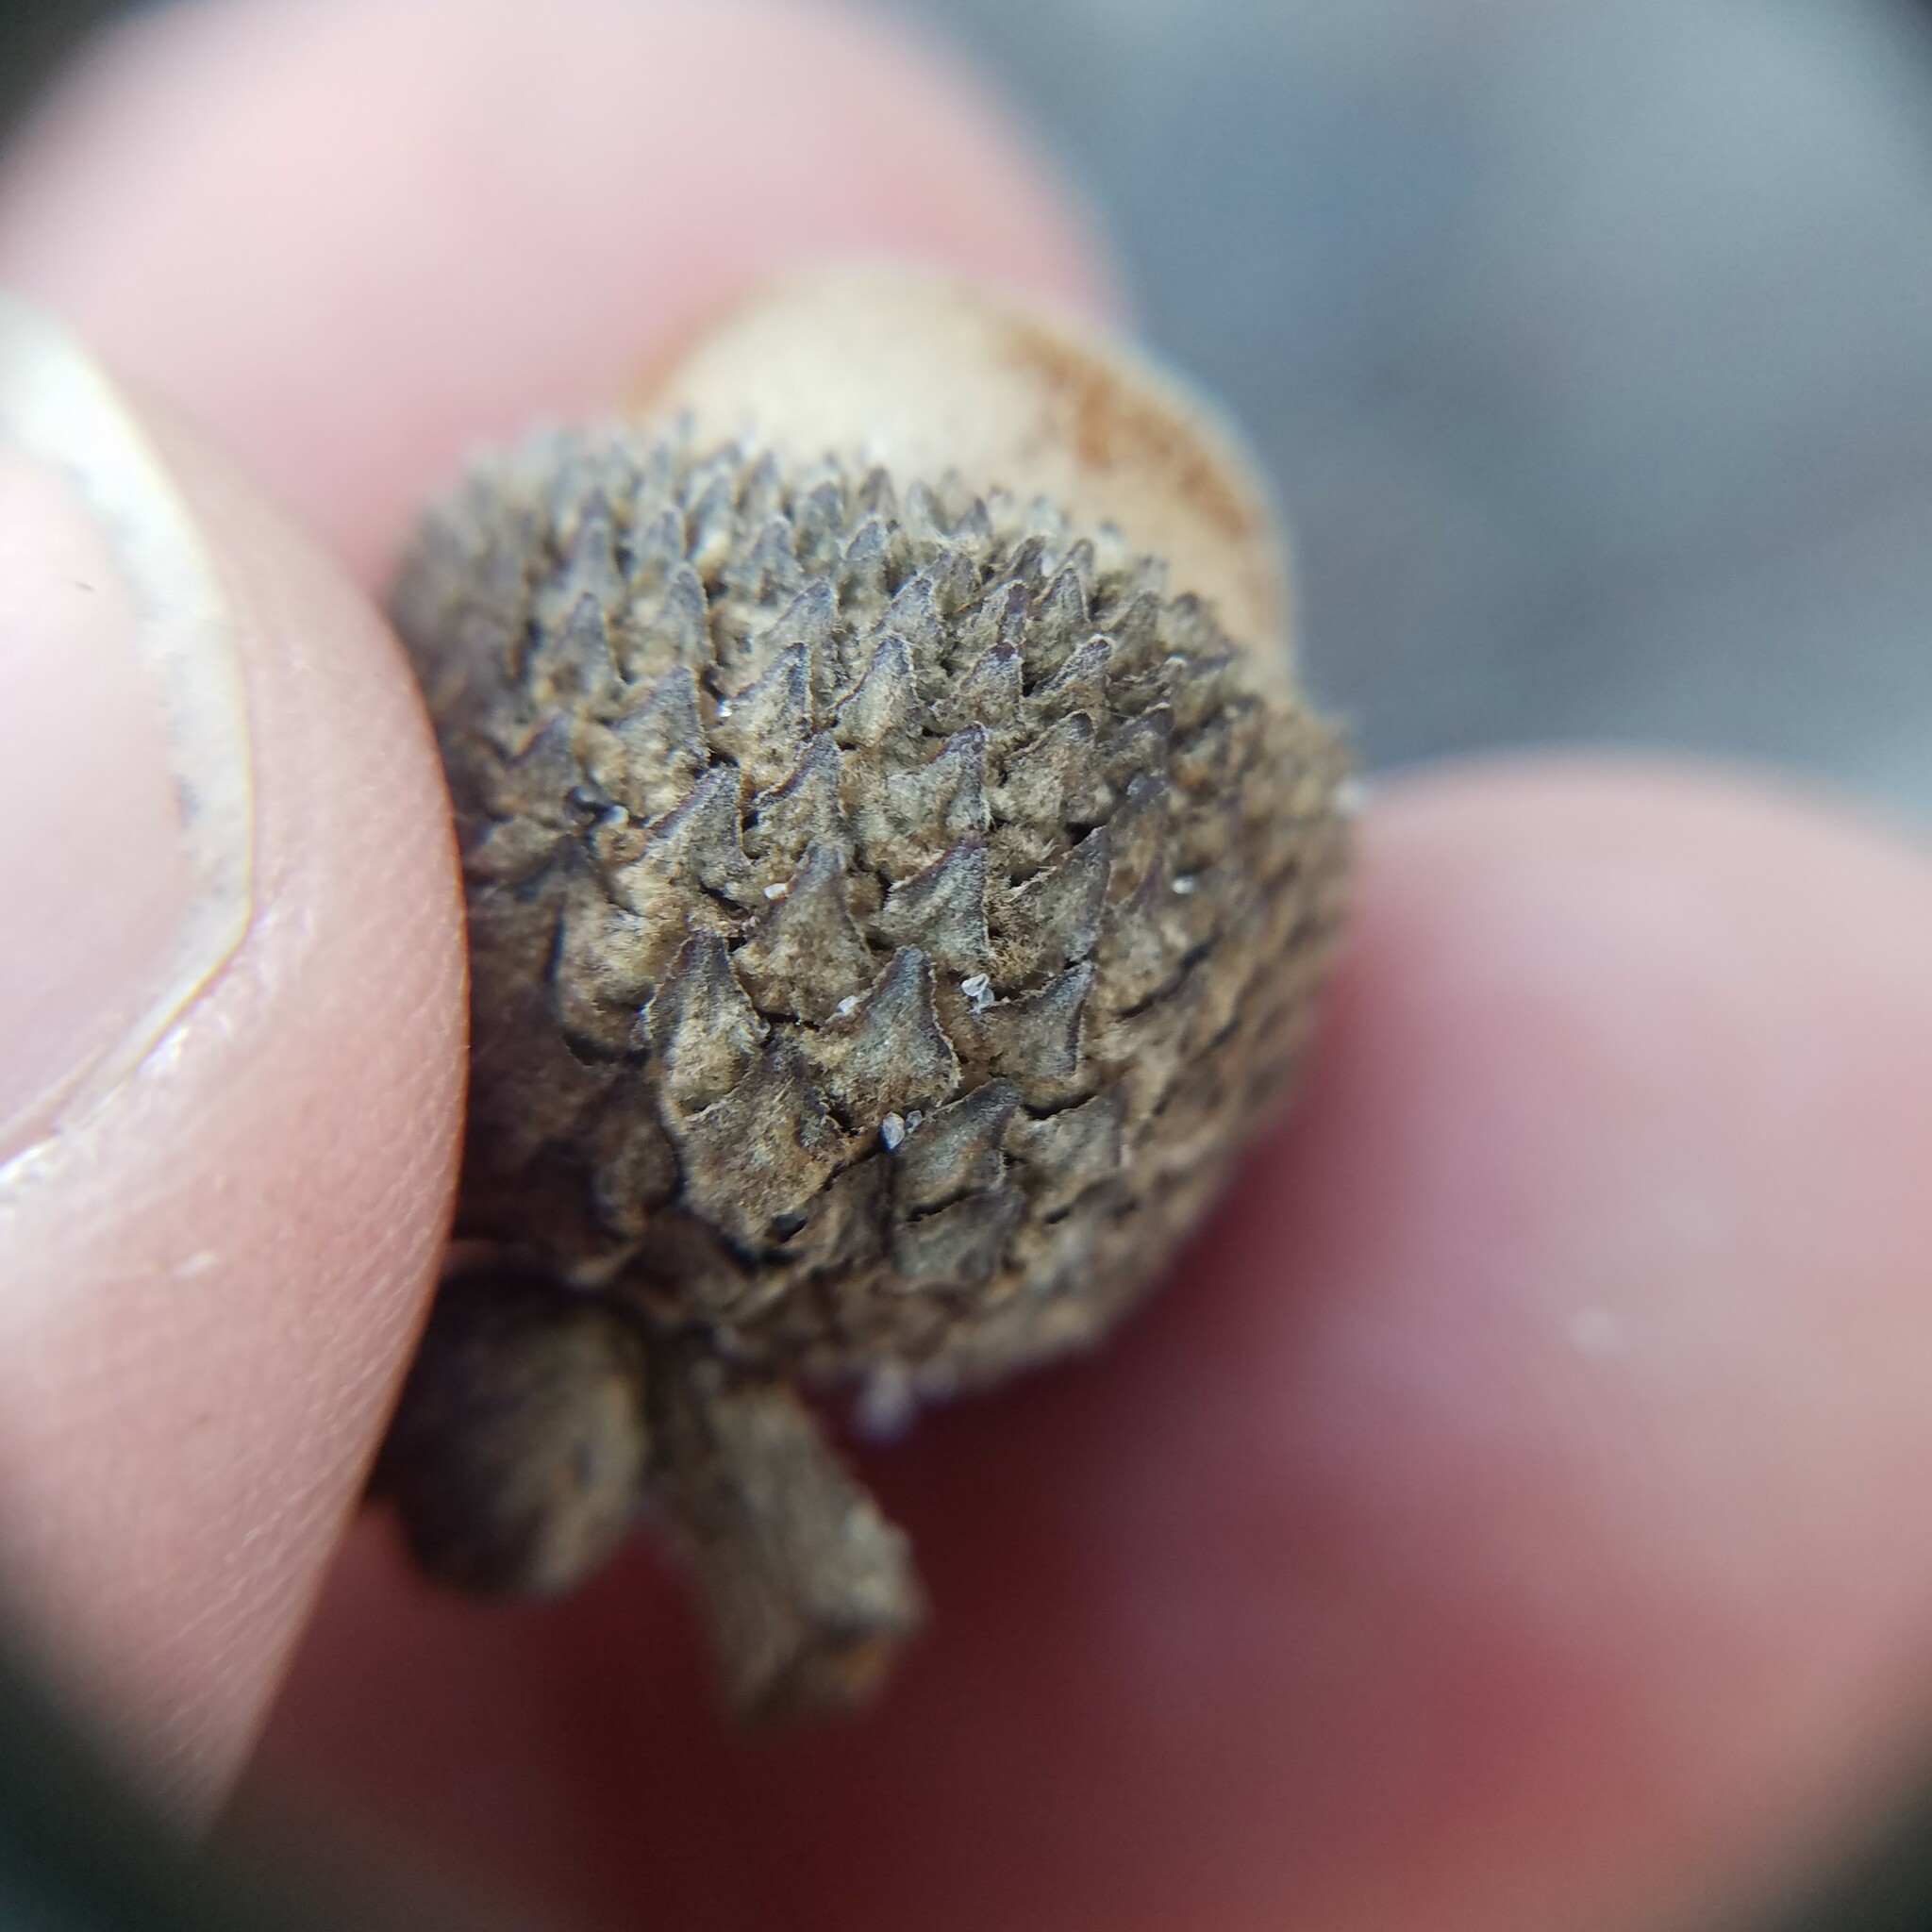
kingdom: Plantae
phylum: Tracheophyta
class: Magnoliopsida
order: Fagales
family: Fagaceae
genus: Quercus
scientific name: Quercus chapmanii
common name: Chapman oak
